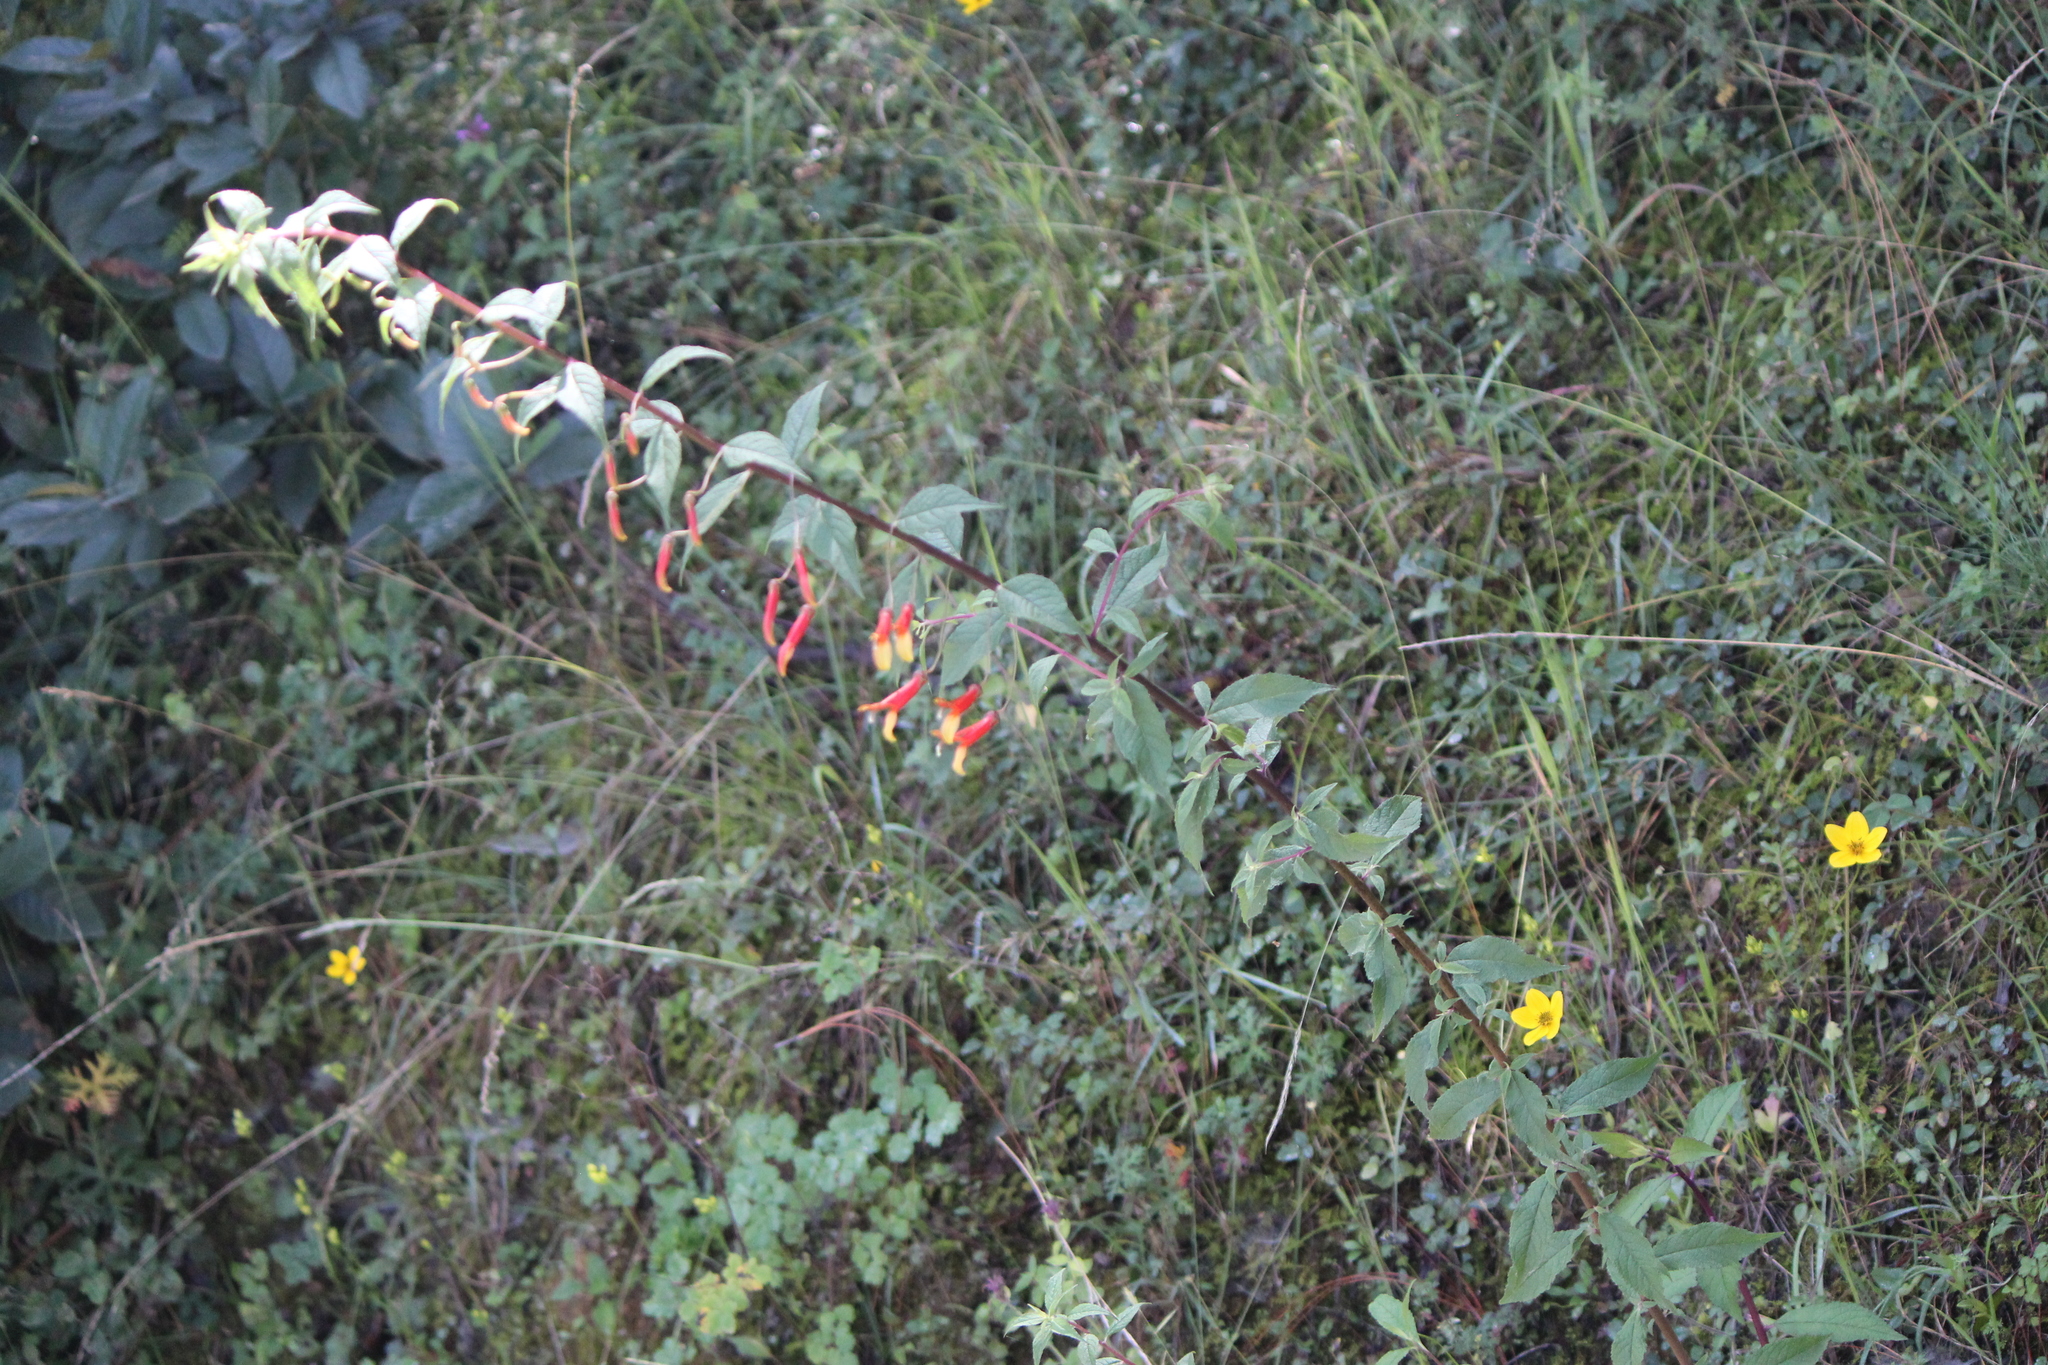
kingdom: Plantae
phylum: Tracheophyta
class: Magnoliopsida
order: Asterales
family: Campanulaceae
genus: Lobelia
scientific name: Lobelia laxiflora
